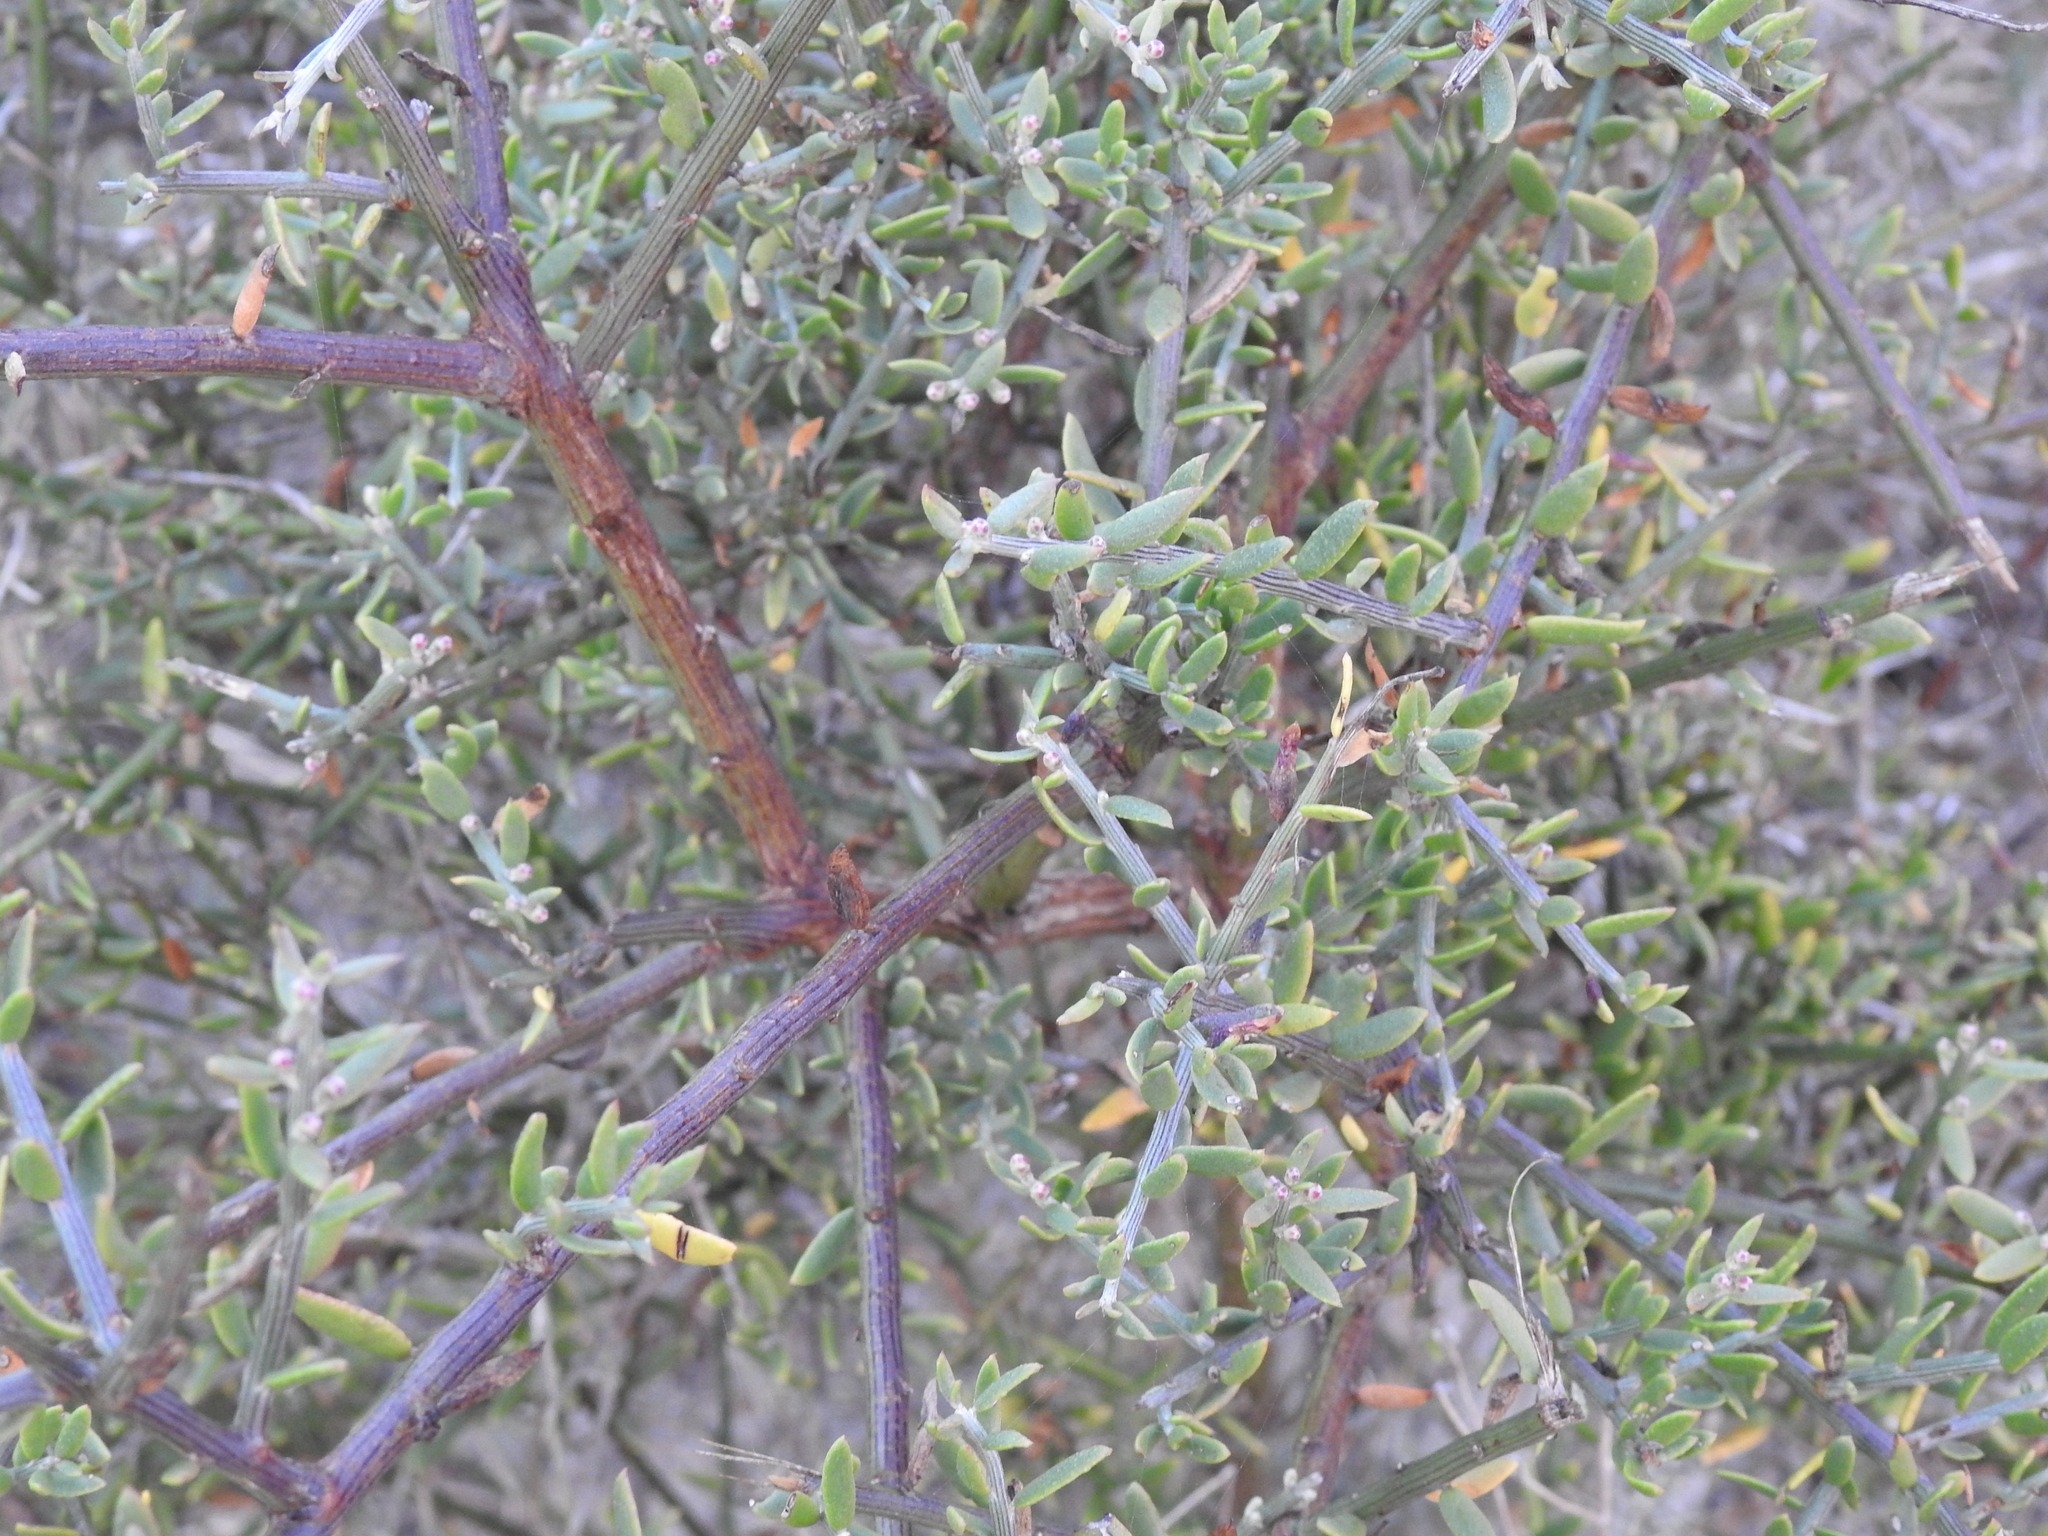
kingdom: Plantae
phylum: Tracheophyta
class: Magnoliopsida
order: Asterales
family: Asteraceae
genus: Cyclolepis
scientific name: Cyclolepis genistoides
